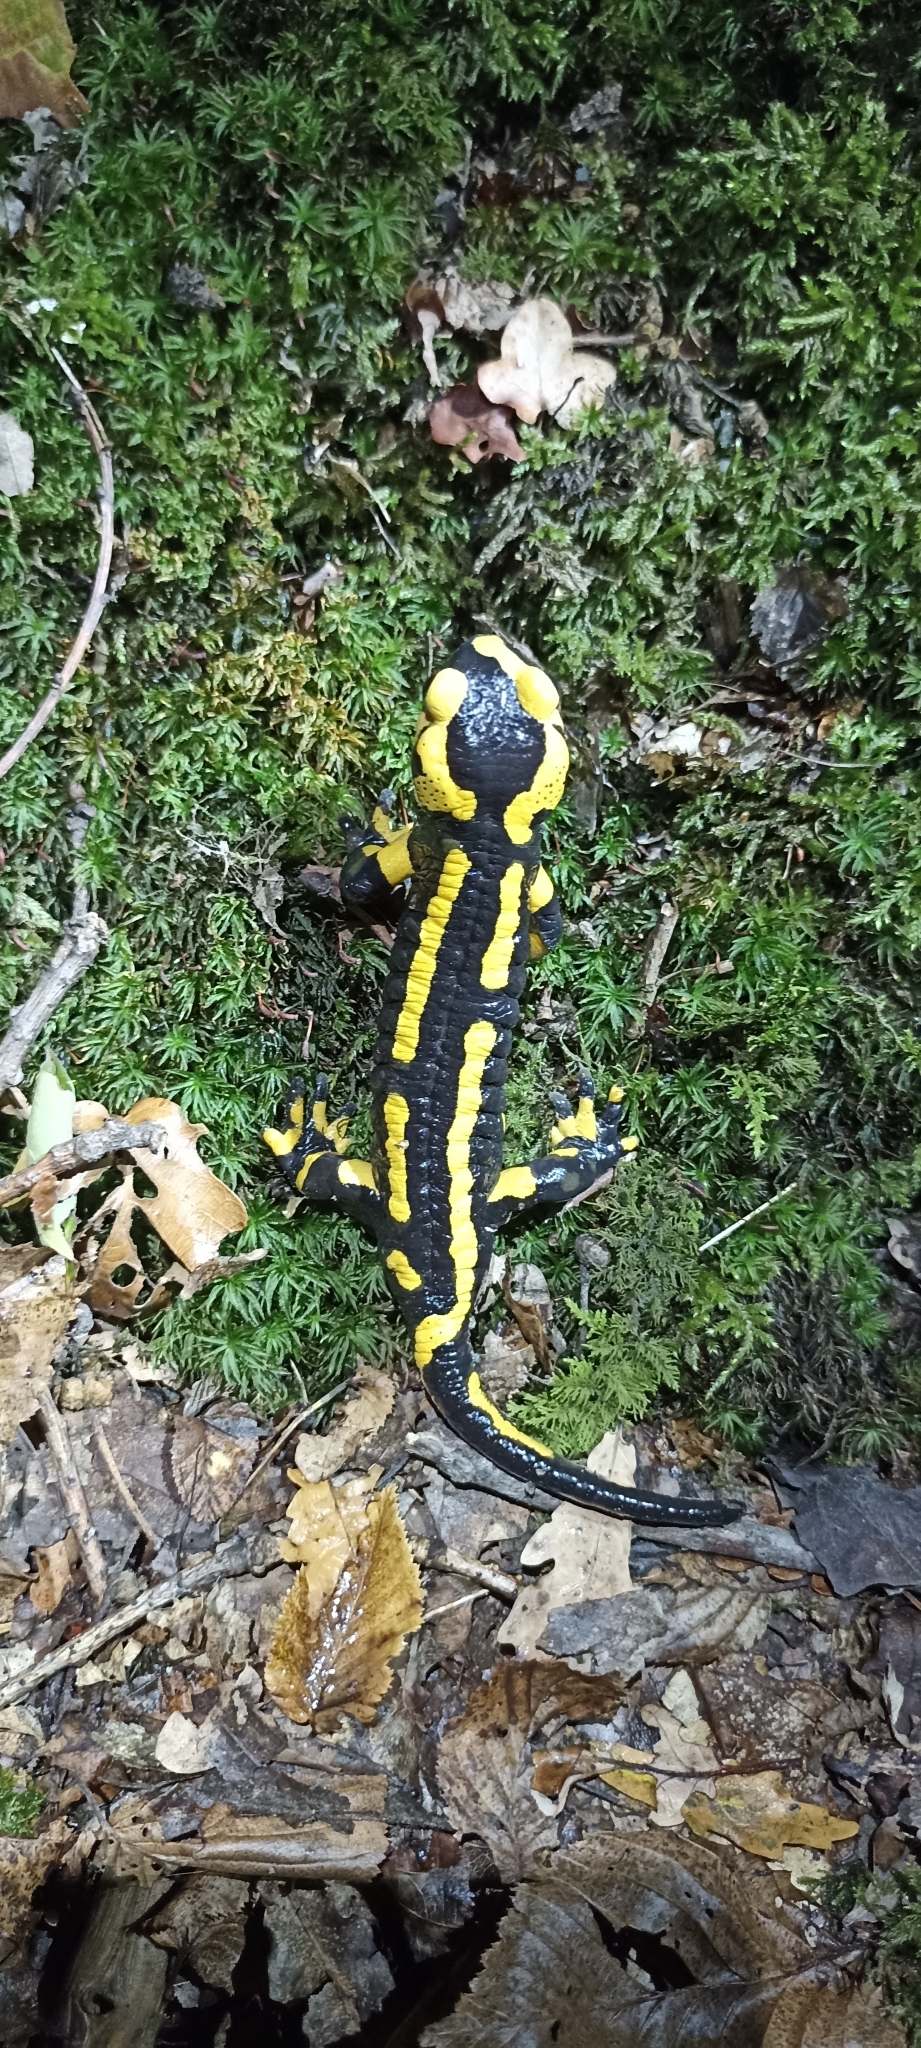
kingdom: Animalia
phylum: Chordata
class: Amphibia
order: Caudata
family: Salamandridae
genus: Salamandra
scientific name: Salamandra salamandra
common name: Fire salamander
